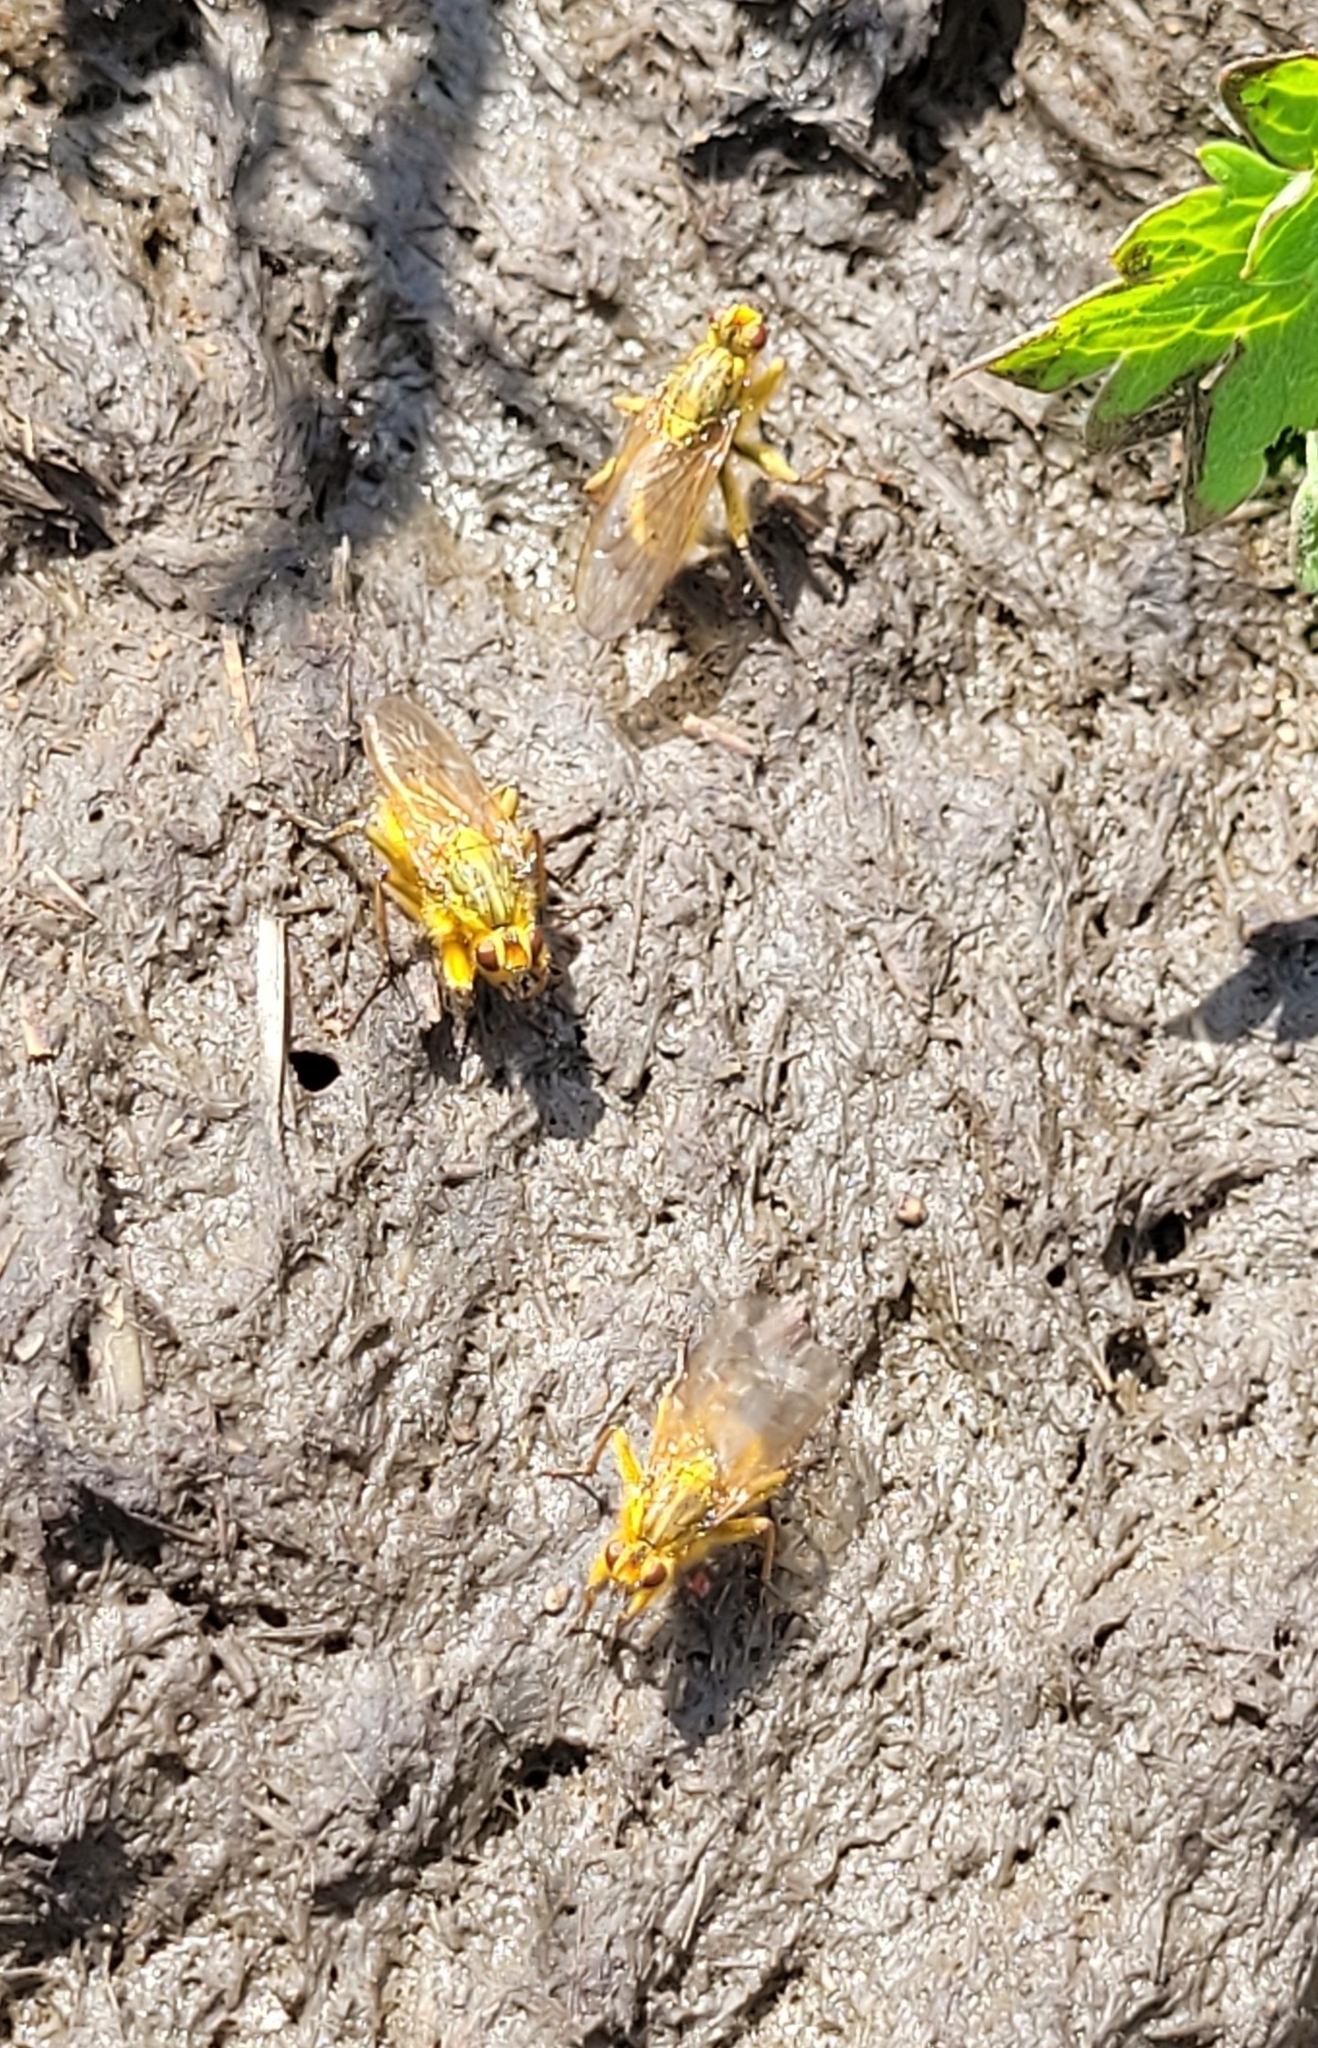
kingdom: Animalia
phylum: Arthropoda
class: Insecta
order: Diptera
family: Scathophagidae
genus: Scathophaga
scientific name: Scathophaga stercoraria
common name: Yellow dung fly
